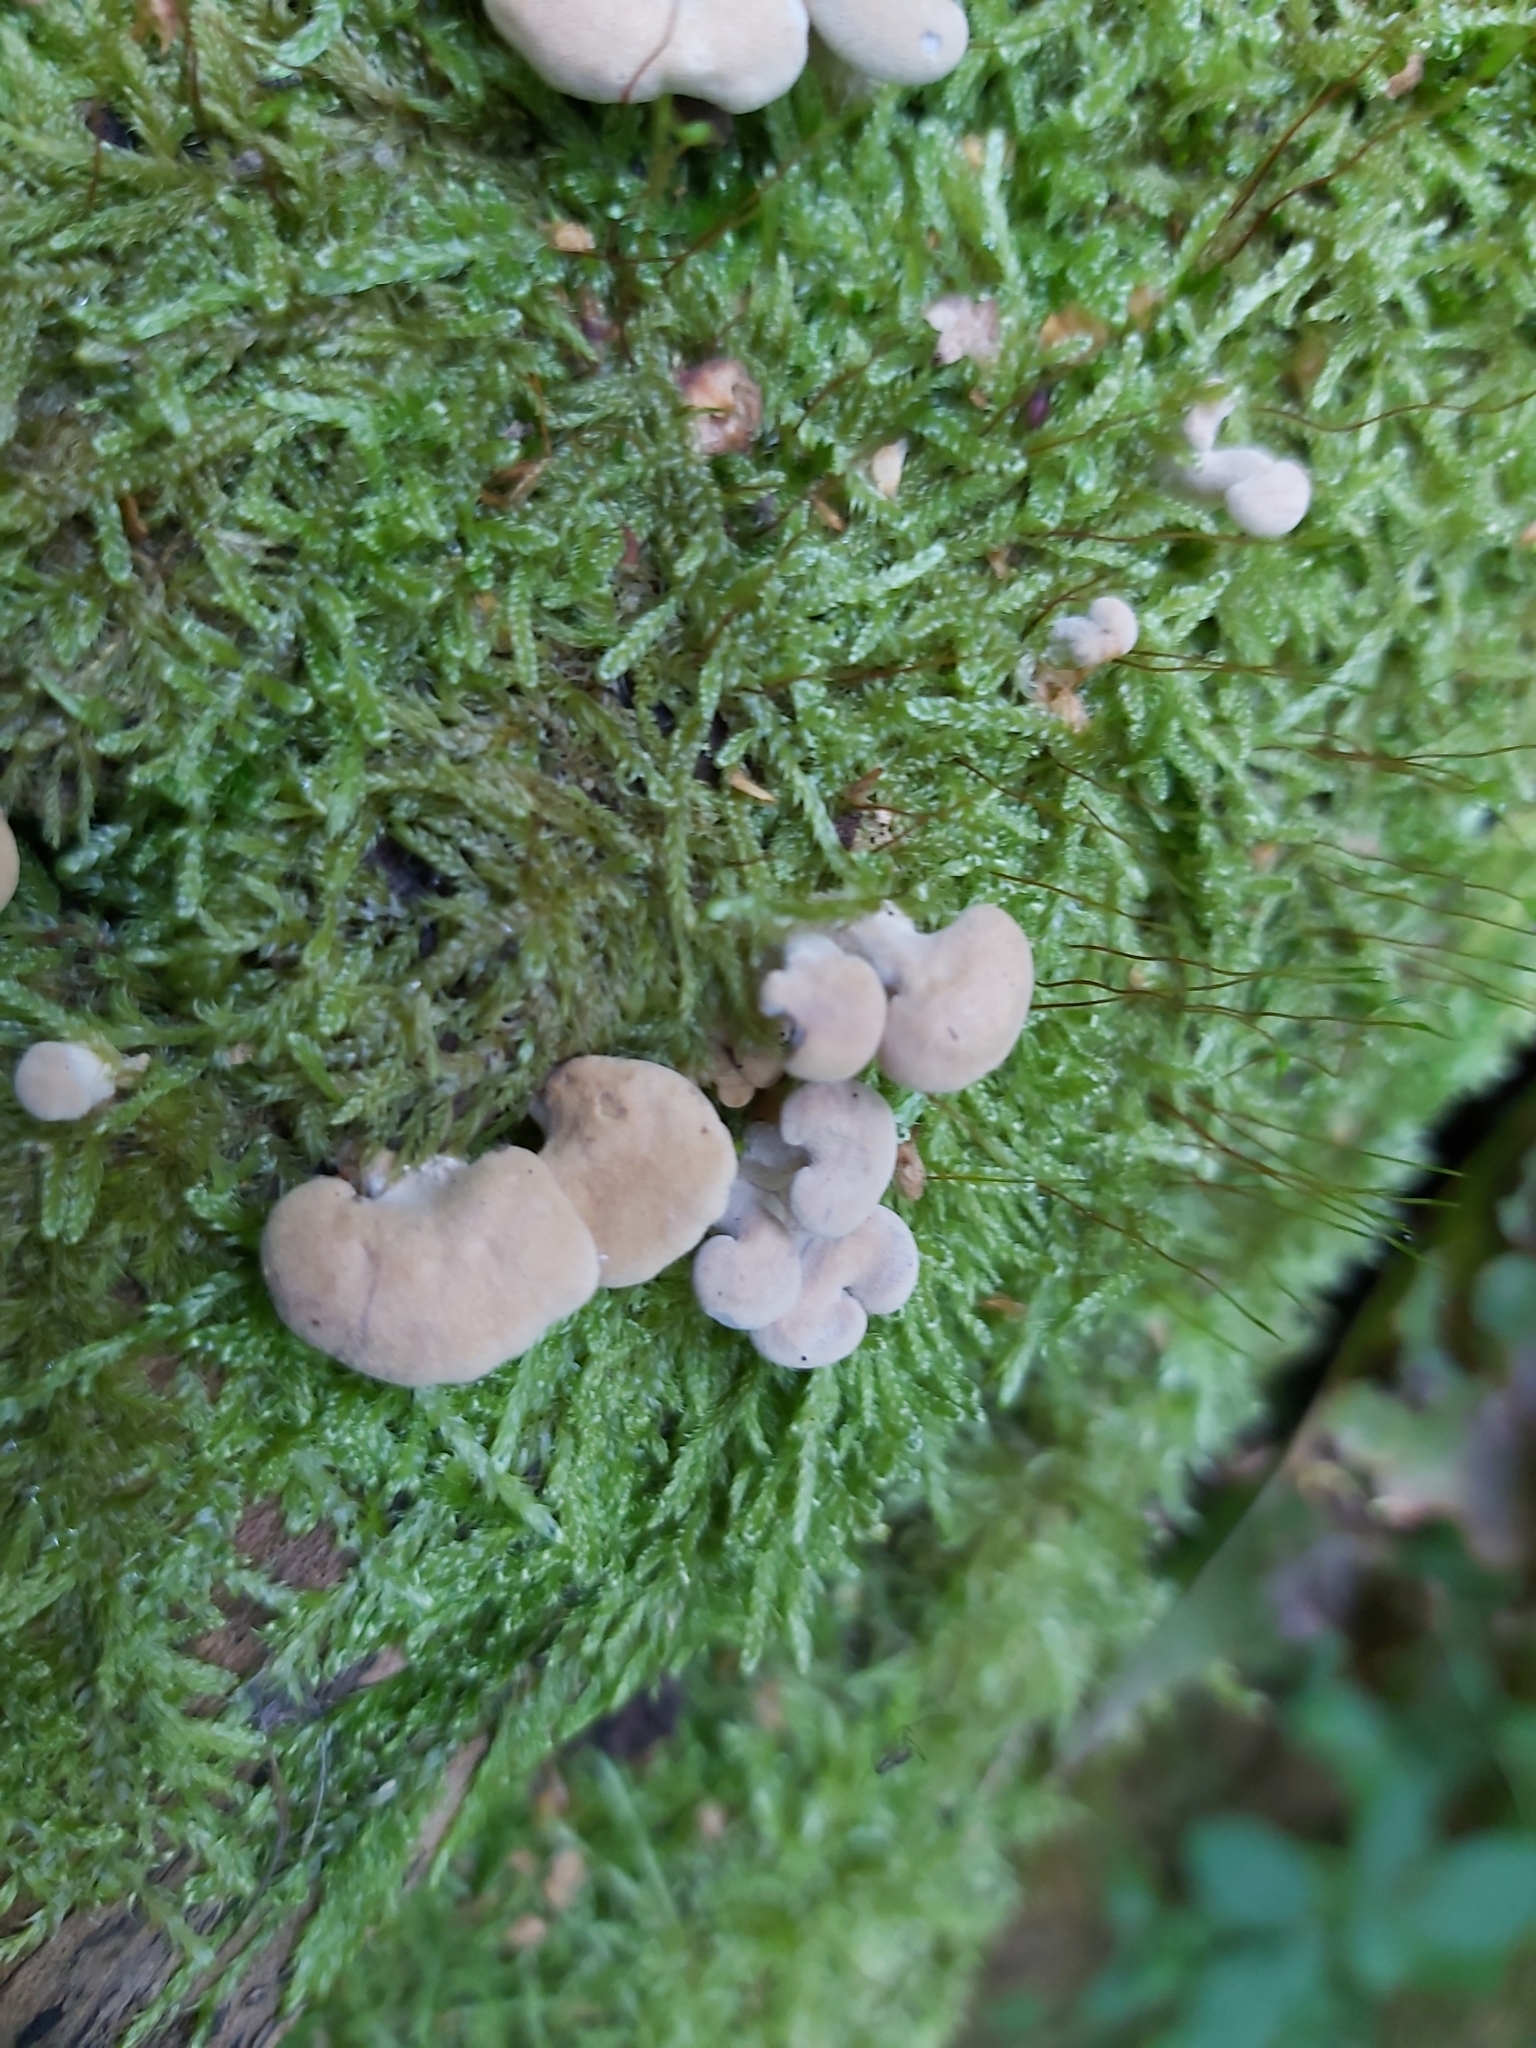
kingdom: Fungi
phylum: Basidiomycota
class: Agaricomycetes
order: Agaricales
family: Mycenaceae
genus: Panellus
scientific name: Panellus stipticus
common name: Bitter oysterling
